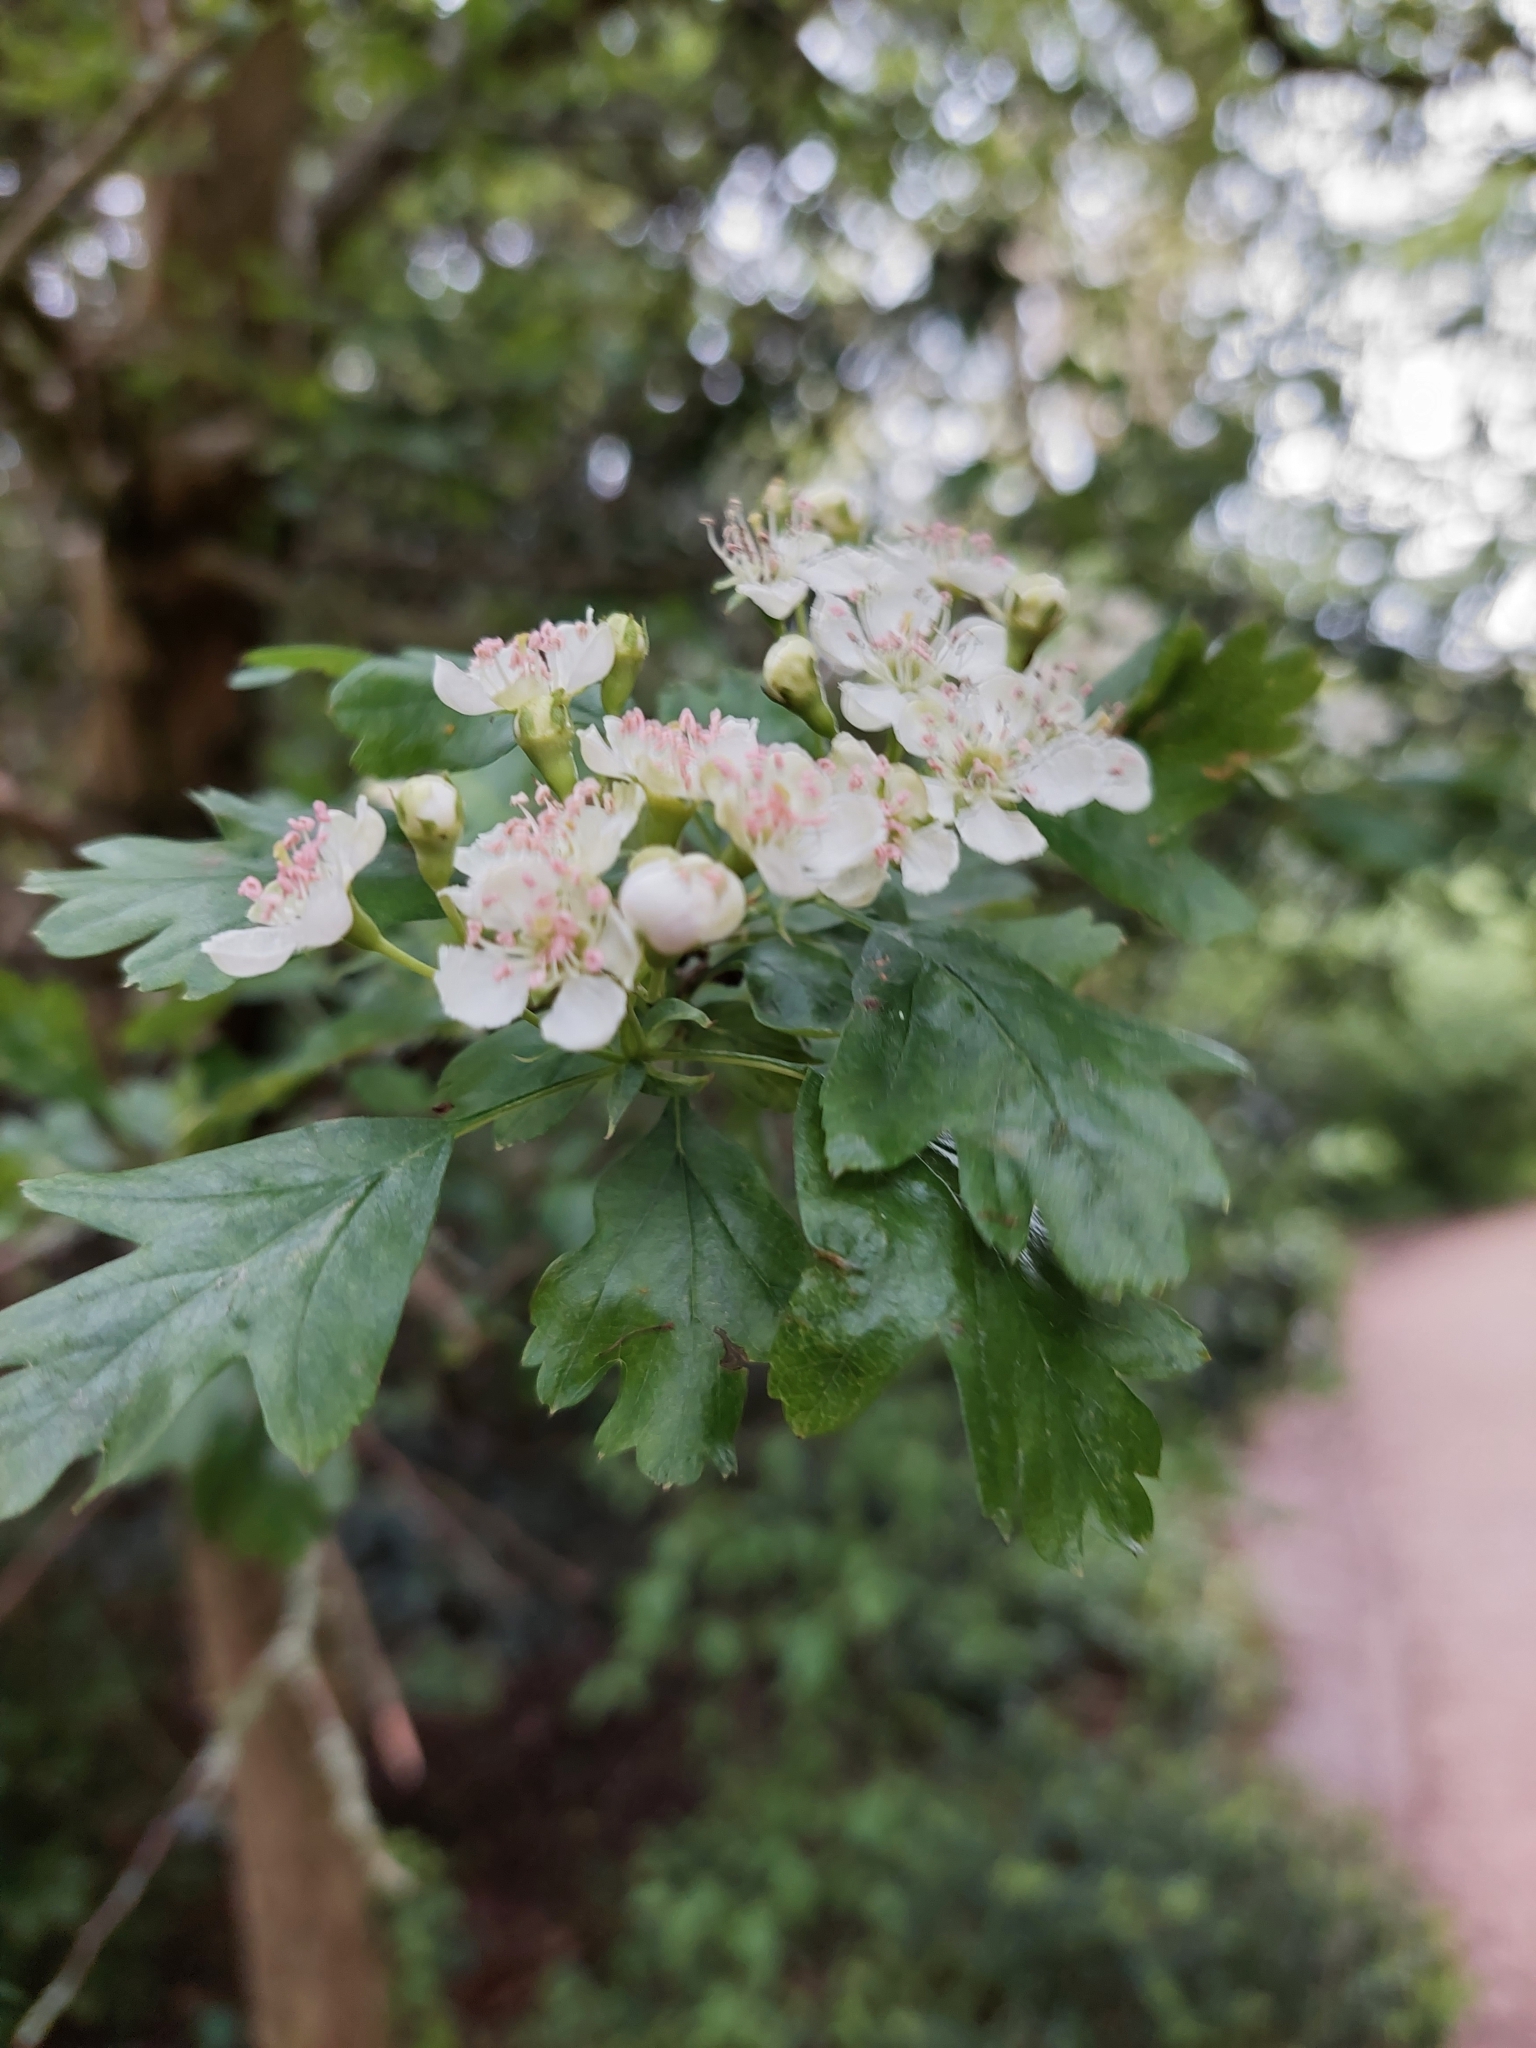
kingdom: Plantae
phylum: Tracheophyta
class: Magnoliopsida
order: Rosales
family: Rosaceae
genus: Crataegus
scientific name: Crataegus monogyna
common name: Hawthorn
